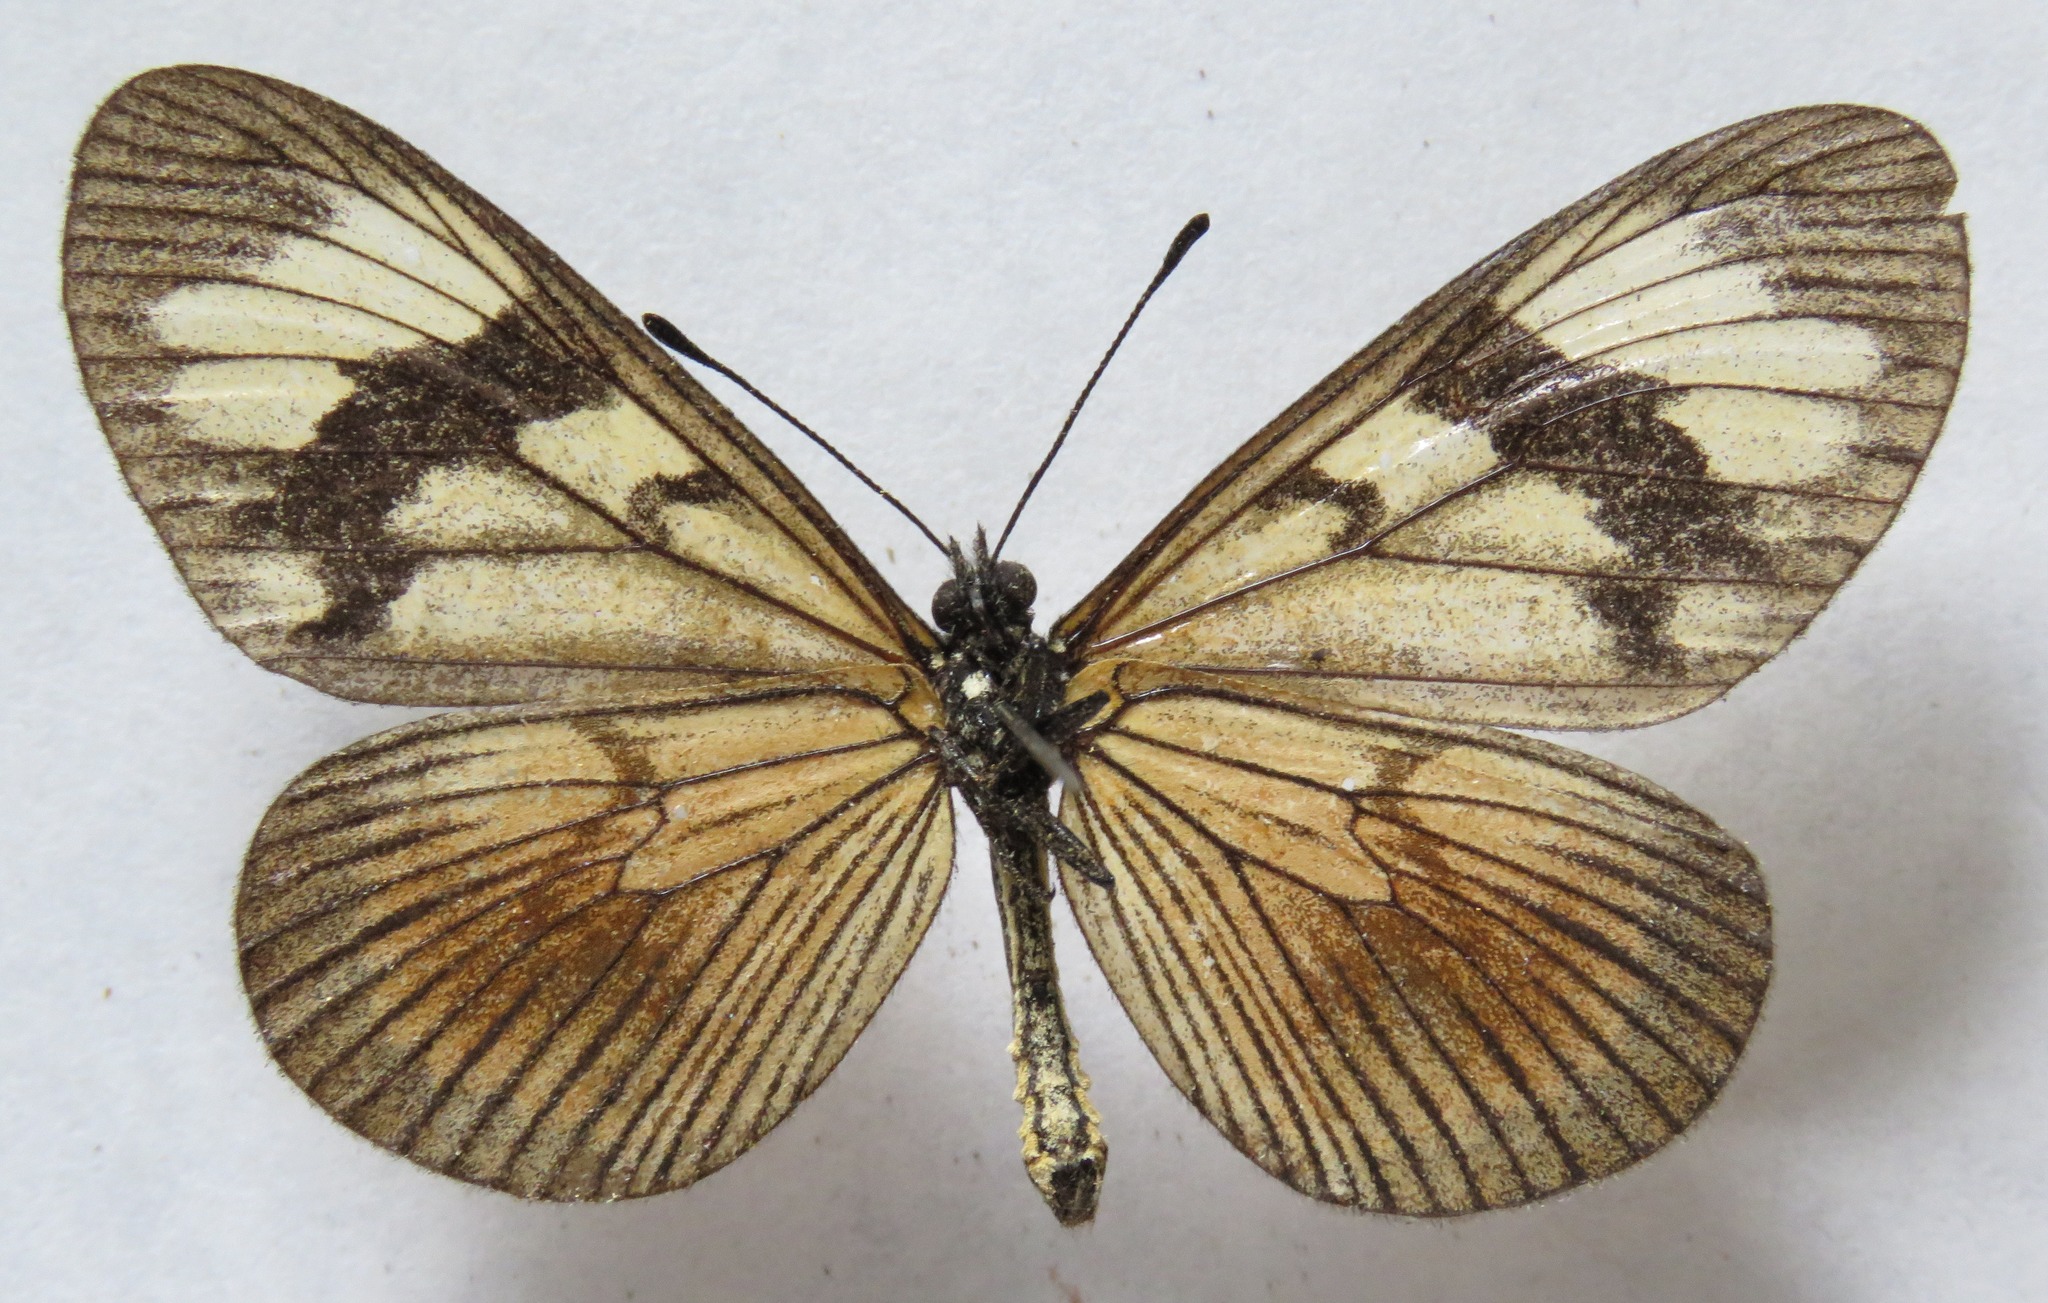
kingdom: Animalia
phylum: Arthropoda
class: Insecta
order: Lepidoptera
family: Nymphalidae
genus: Actinote
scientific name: Actinote anteas
